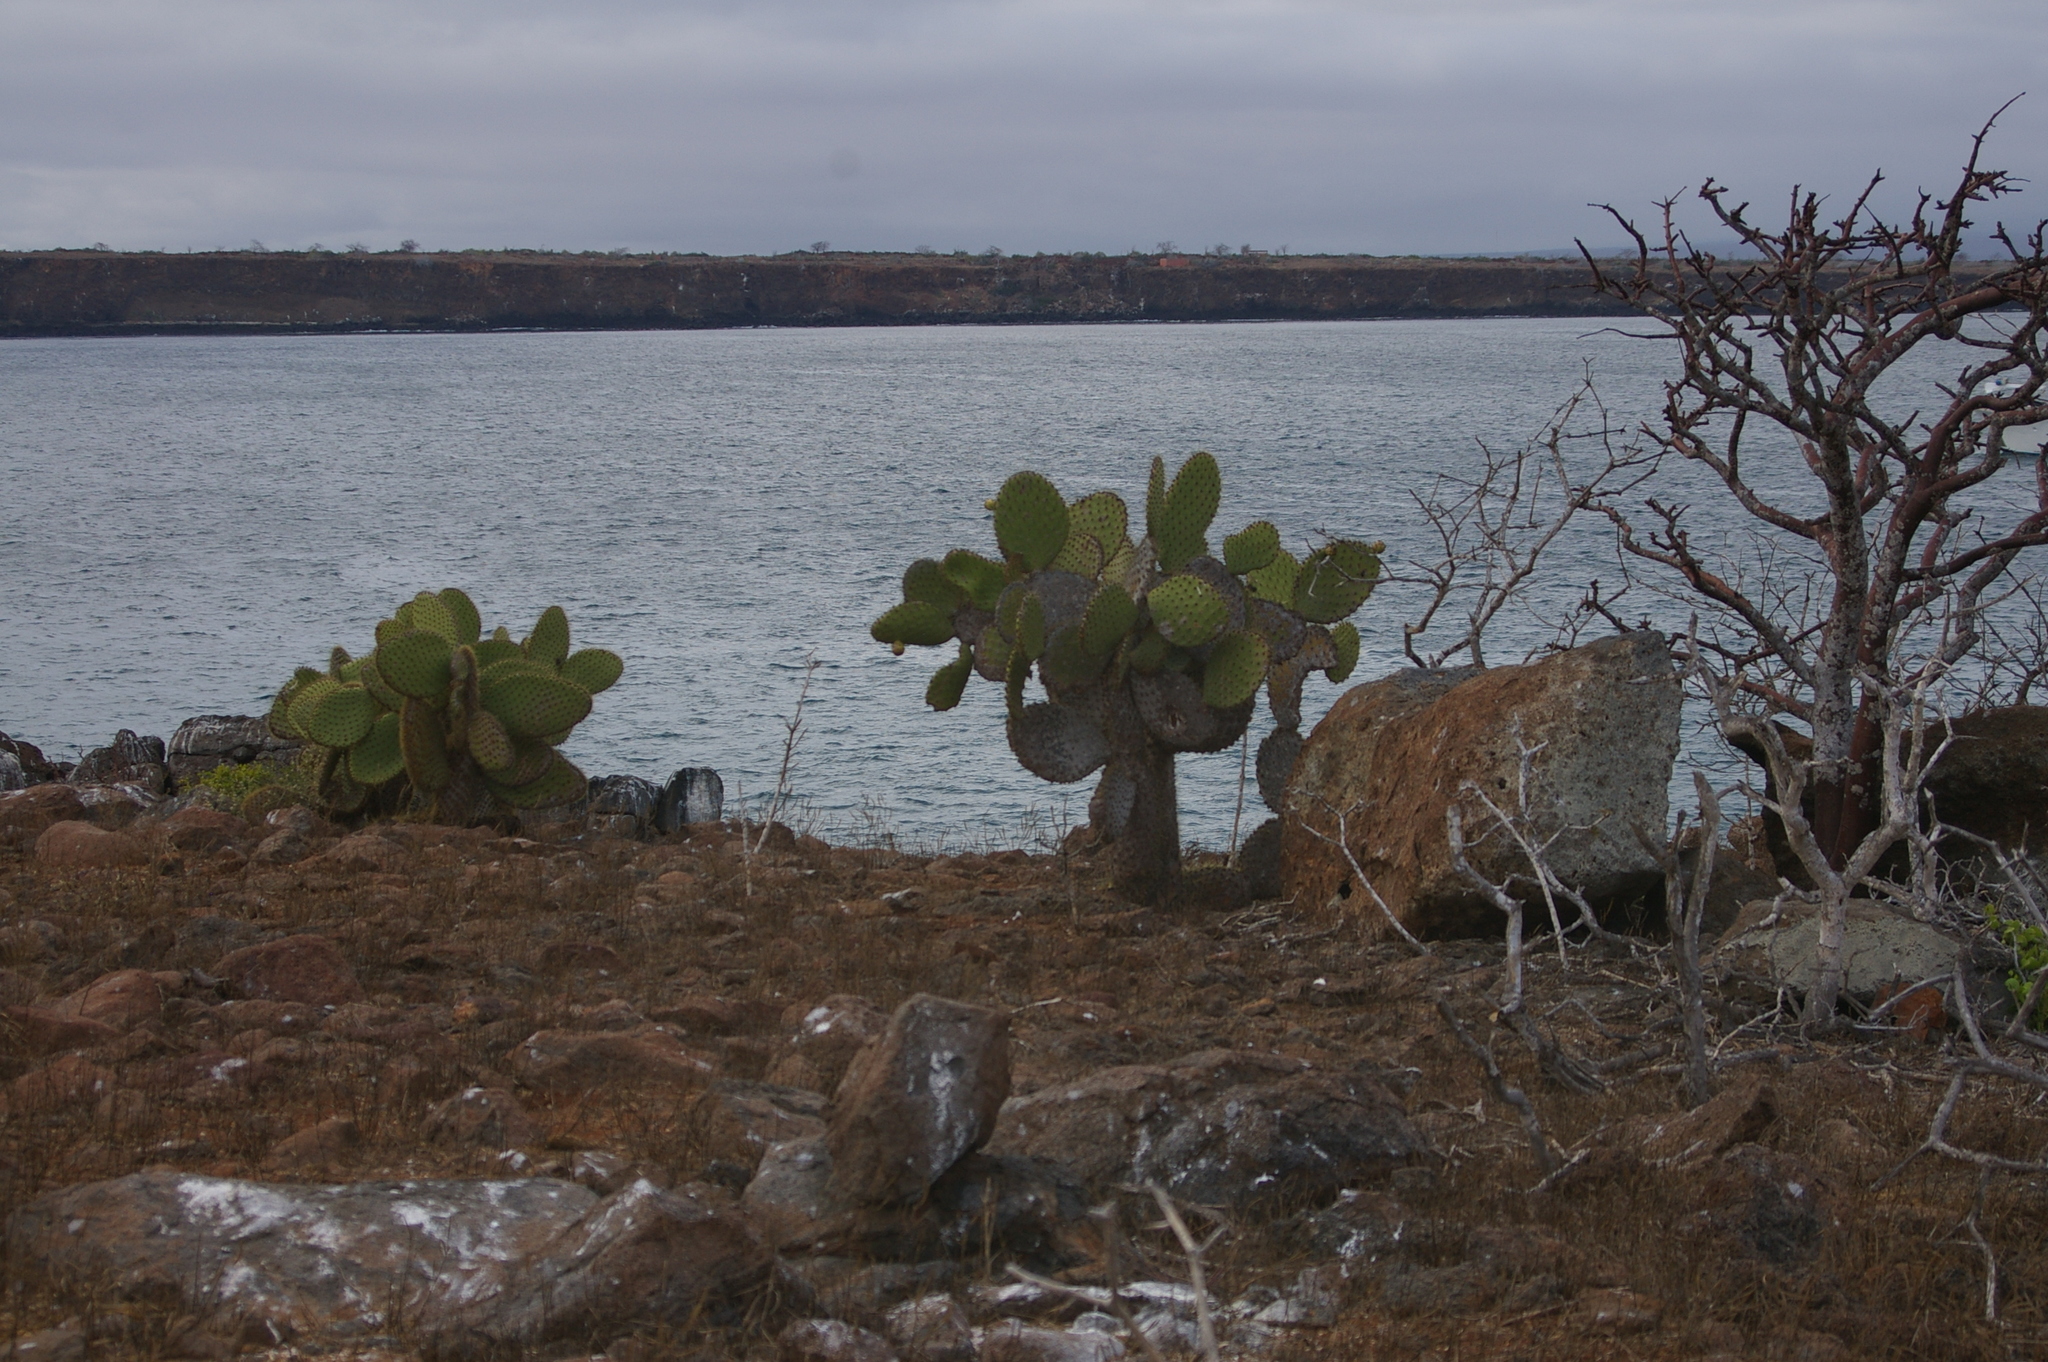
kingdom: Plantae
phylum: Tracheophyta
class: Magnoliopsida
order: Caryophyllales
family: Cactaceae
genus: Opuntia
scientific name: Opuntia galapageia
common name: Galápagos prickly pear
